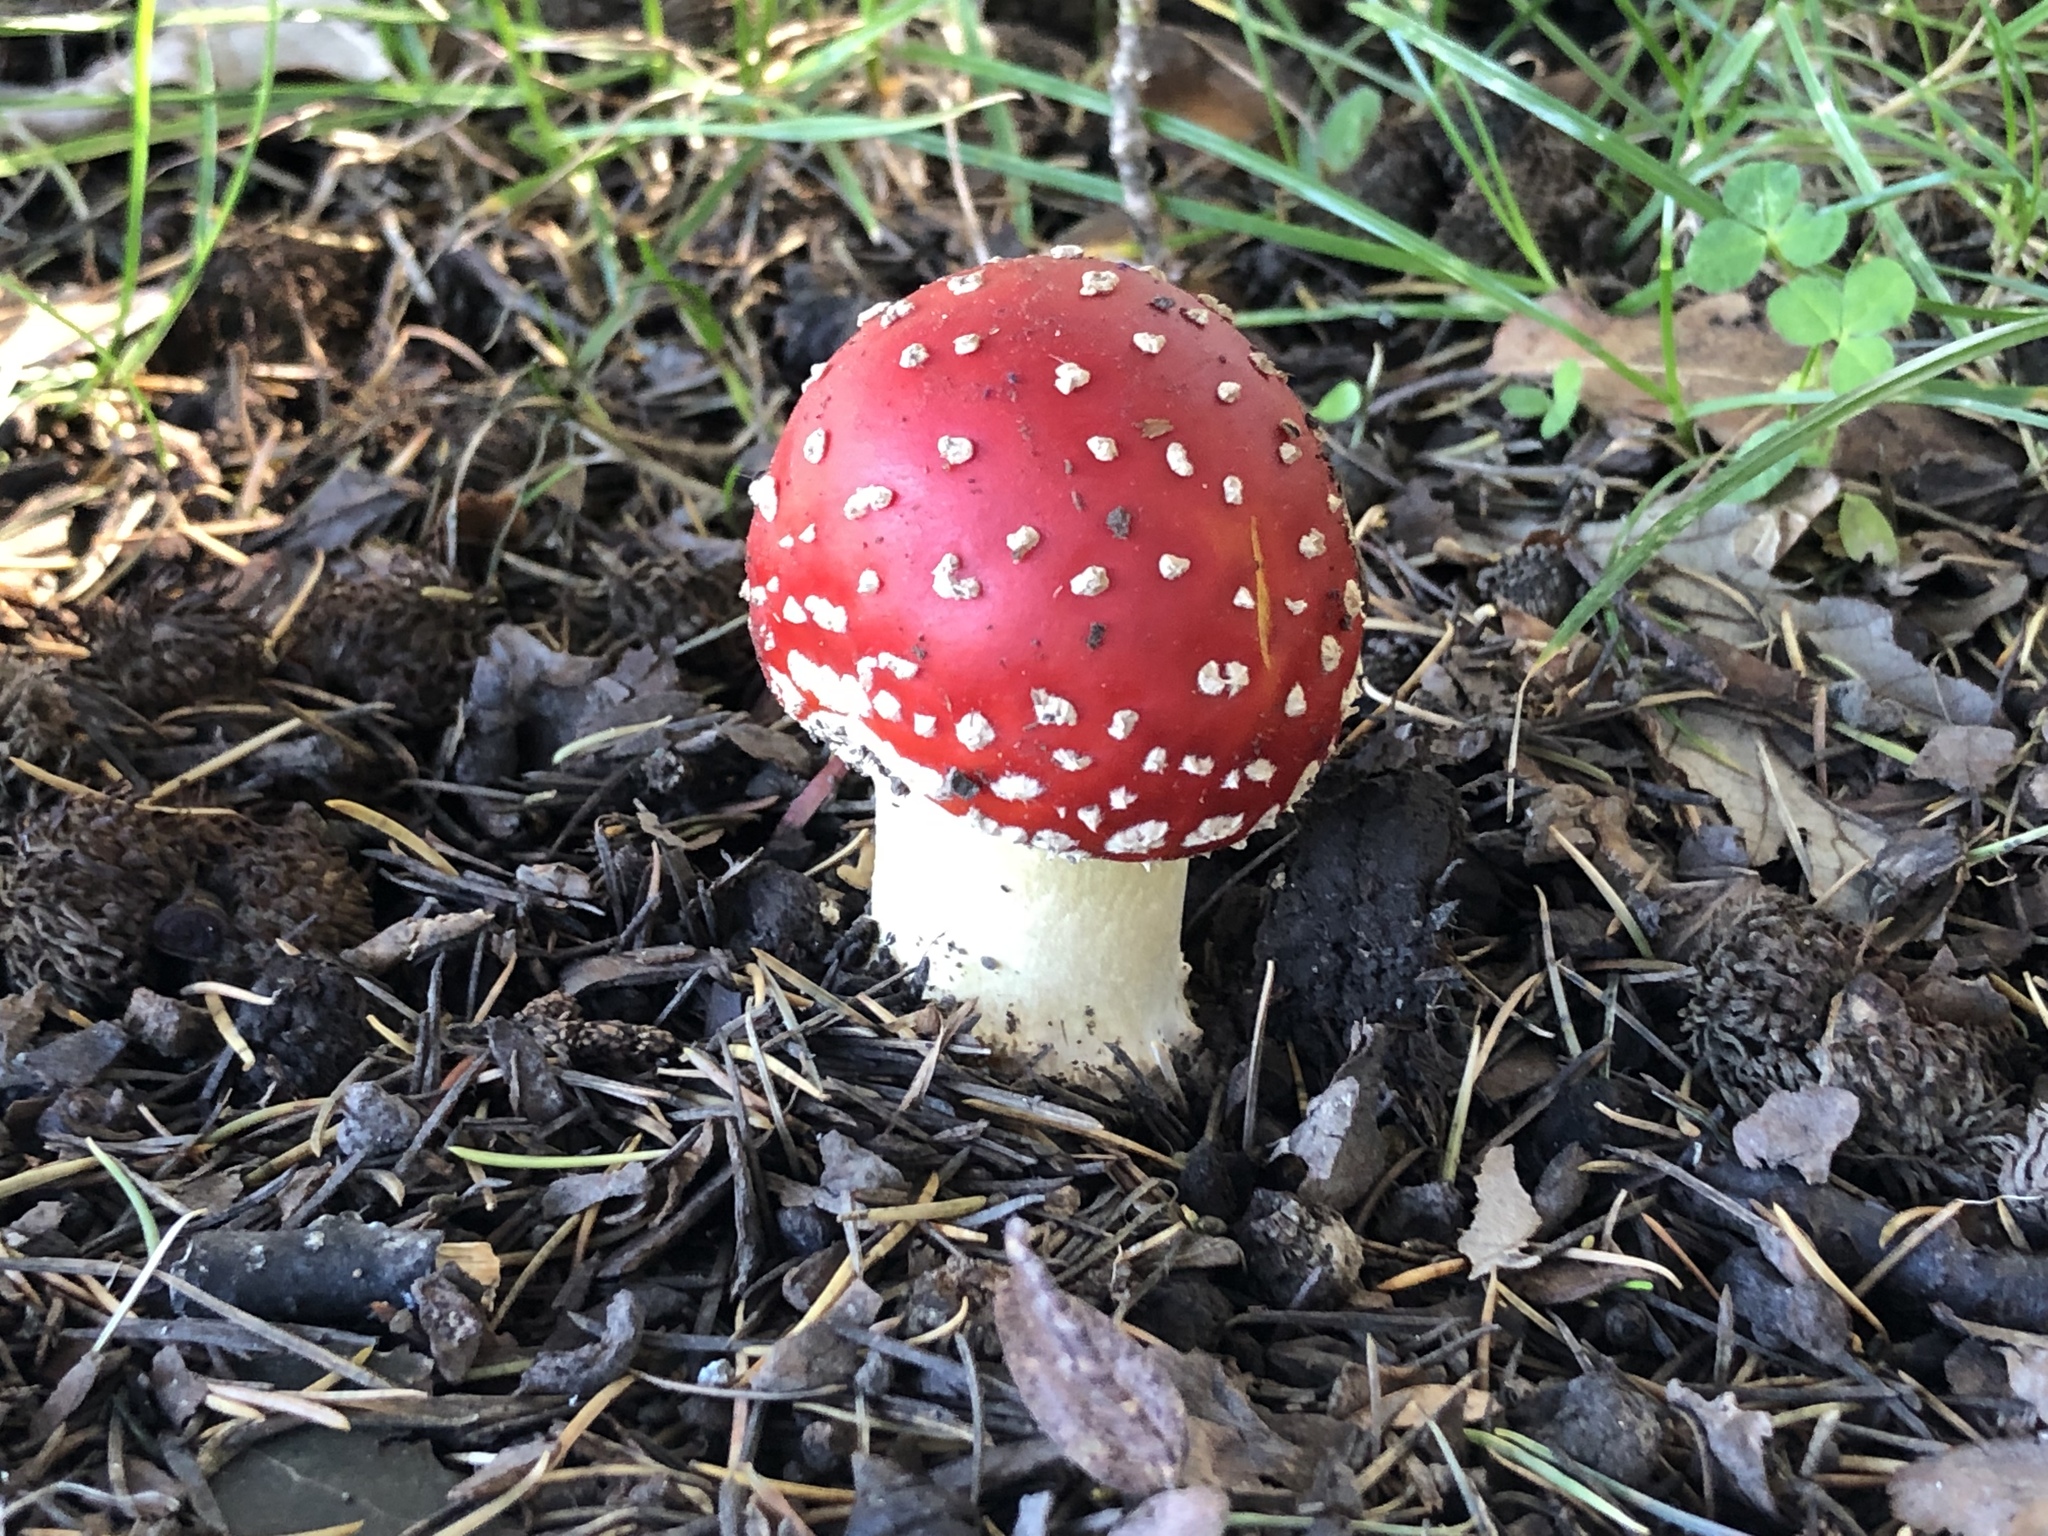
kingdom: Fungi
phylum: Basidiomycota
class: Agaricomycetes
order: Agaricales
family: Amanitaceae
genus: Amanita
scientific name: Amanita muscaria
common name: Fly agaric
